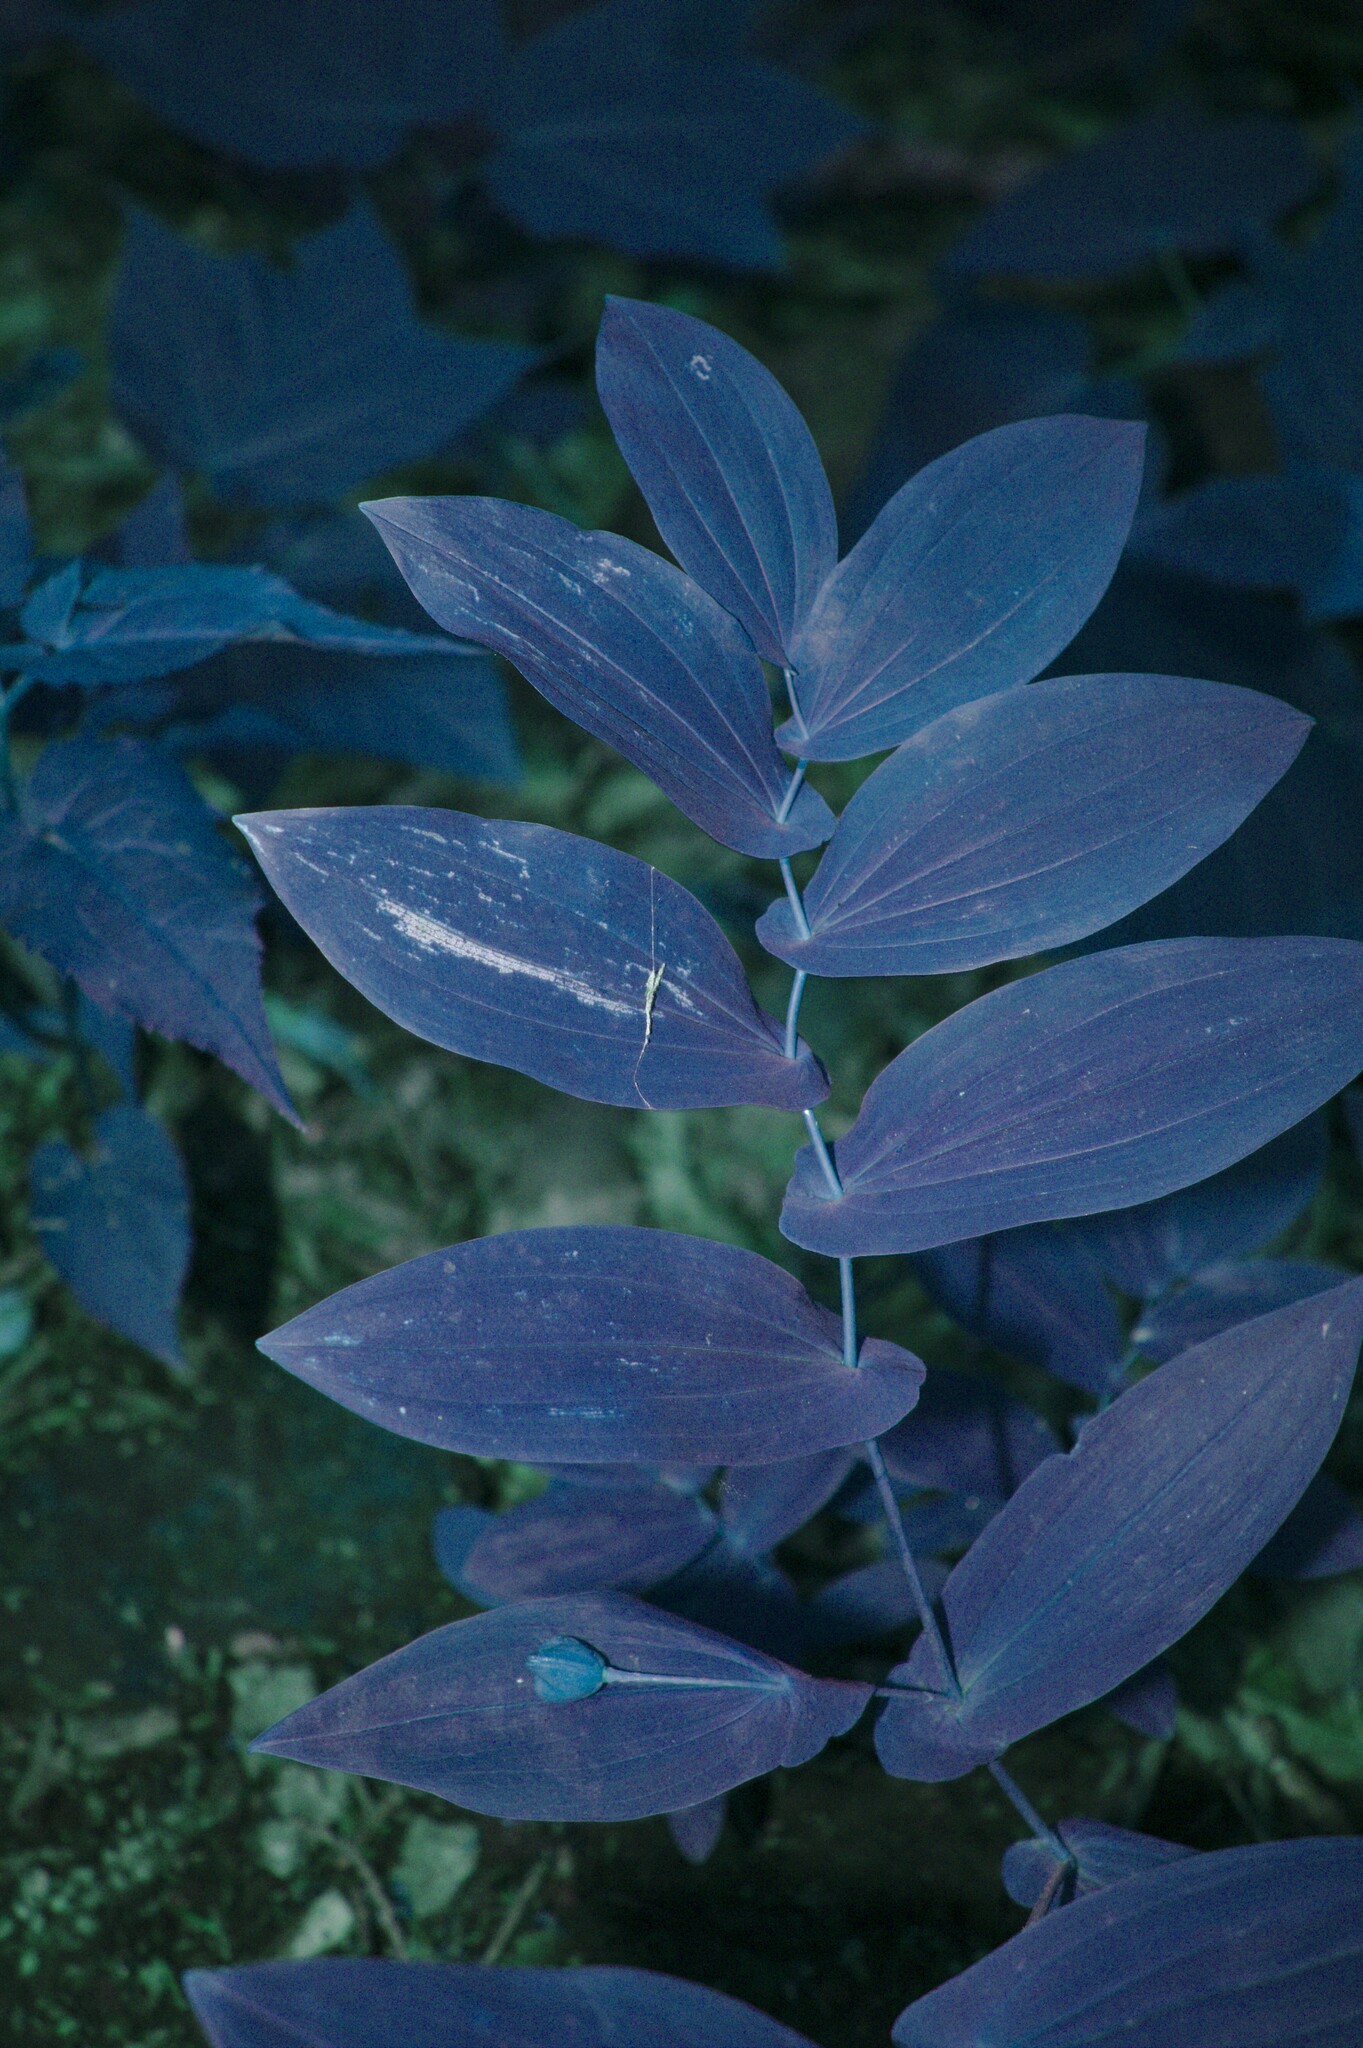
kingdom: Plantae
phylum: Tracheophyta
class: Liliopsida
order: Liliales
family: Colchicaceae
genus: Uvularia
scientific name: Uvularia grandiflora
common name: Bellwort
